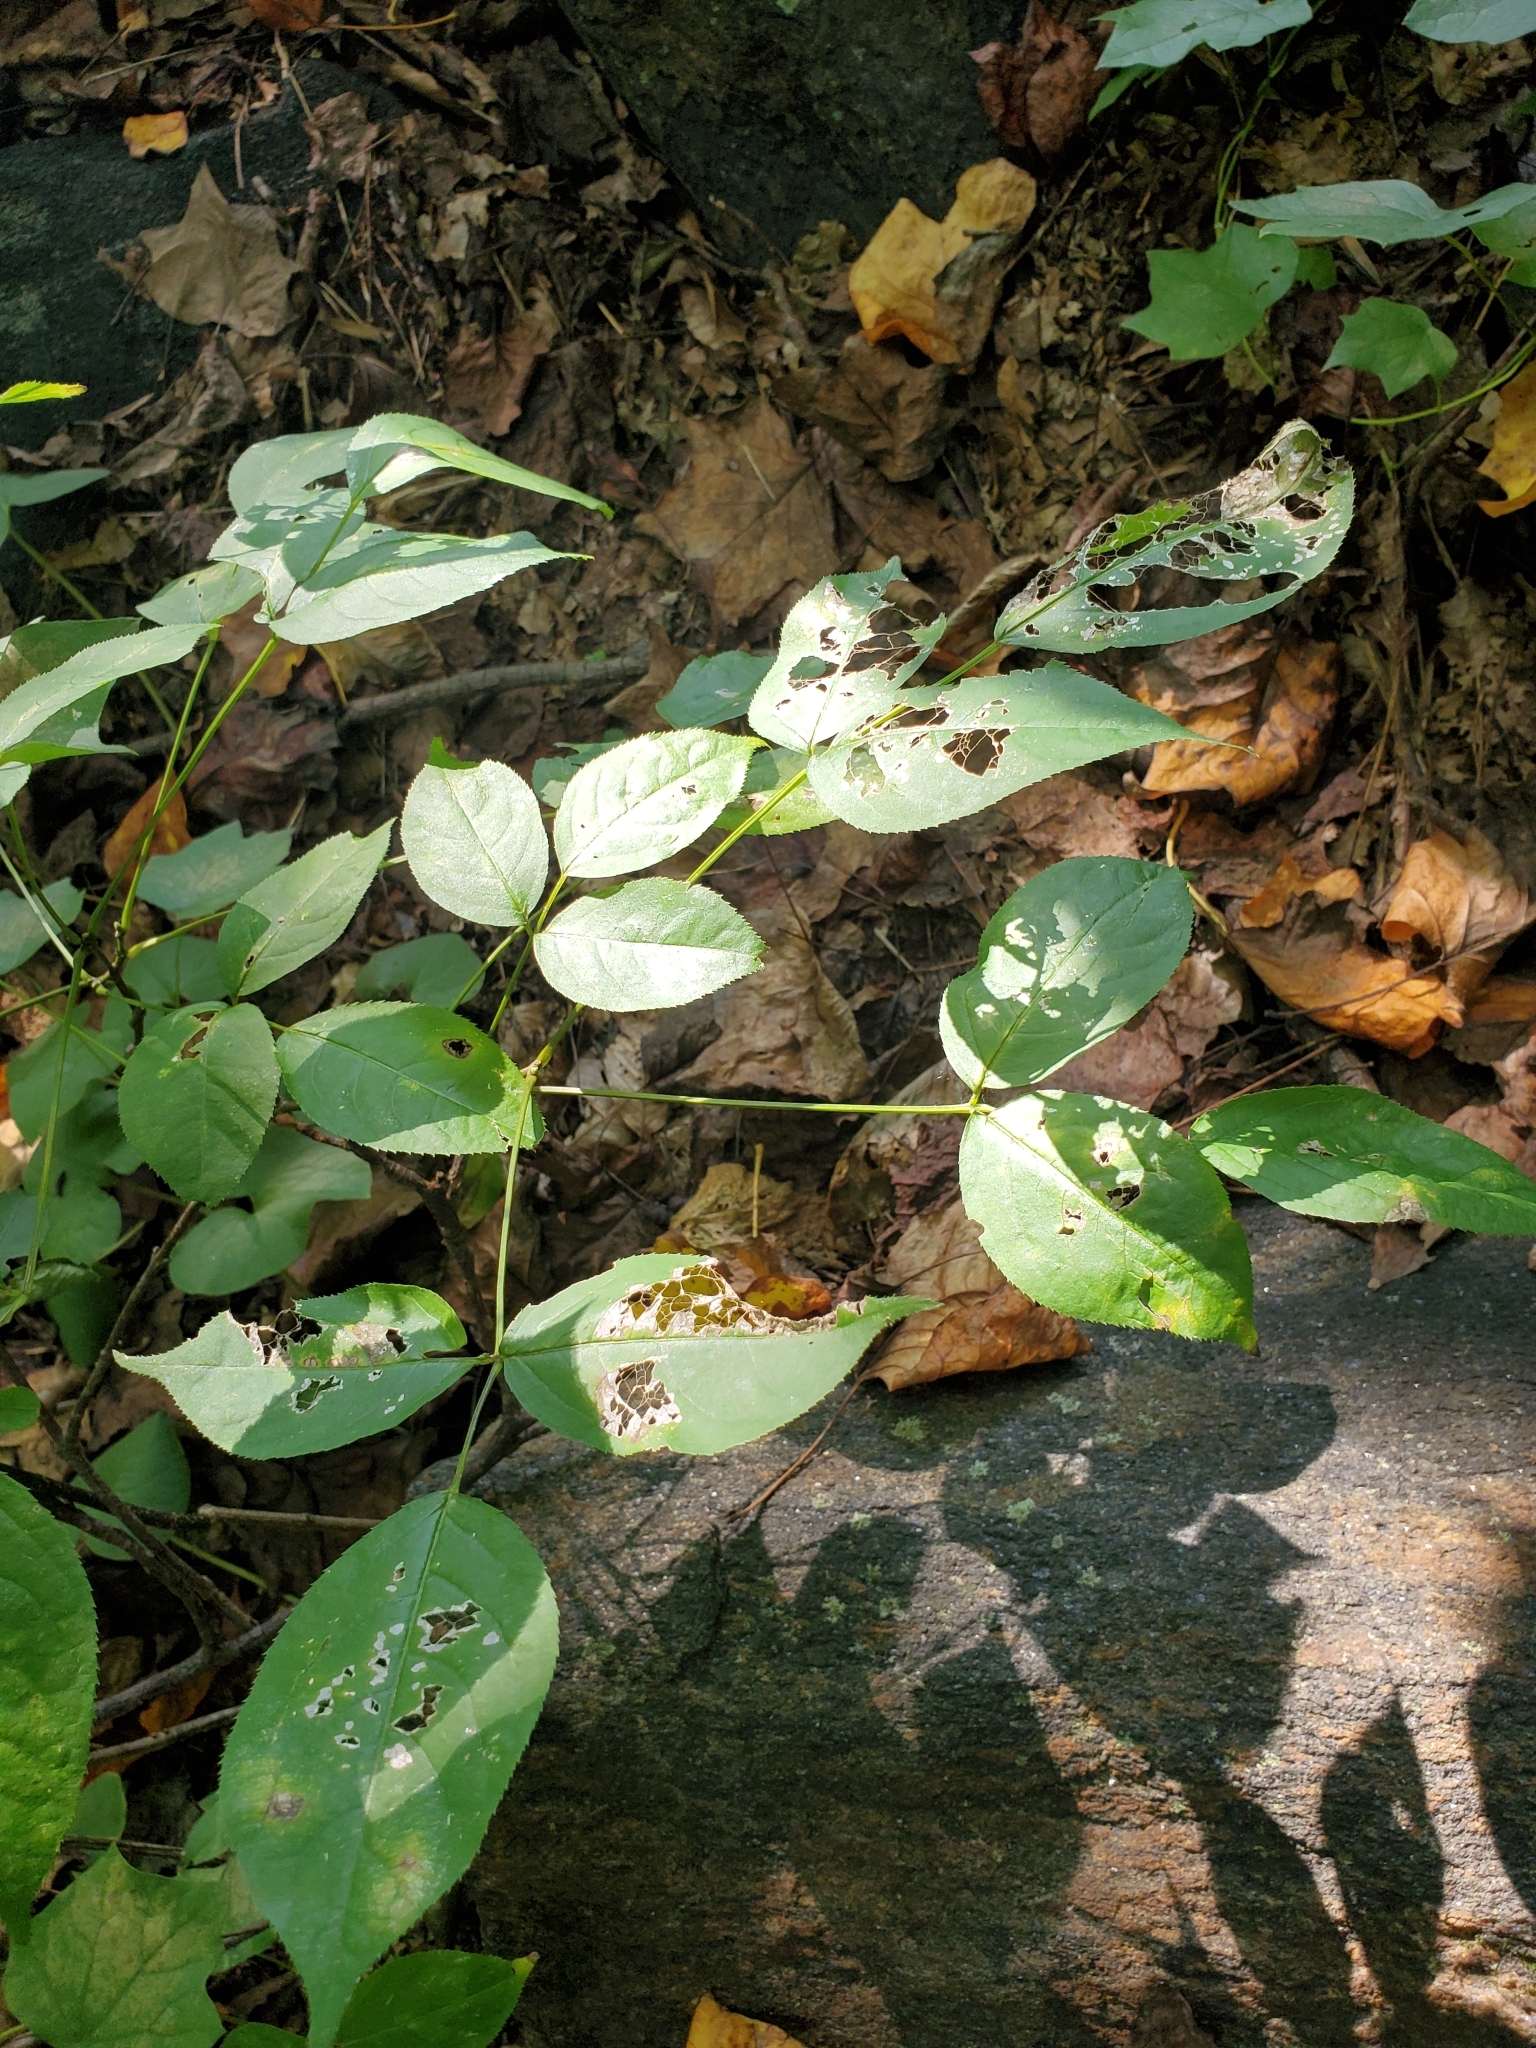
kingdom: Plantae
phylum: Tracheophyta
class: Magnoliopsida
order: Crossosomatales
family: Staphyleaceae
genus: Staphylea
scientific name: Staphylea trifolia
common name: American bladdernut
